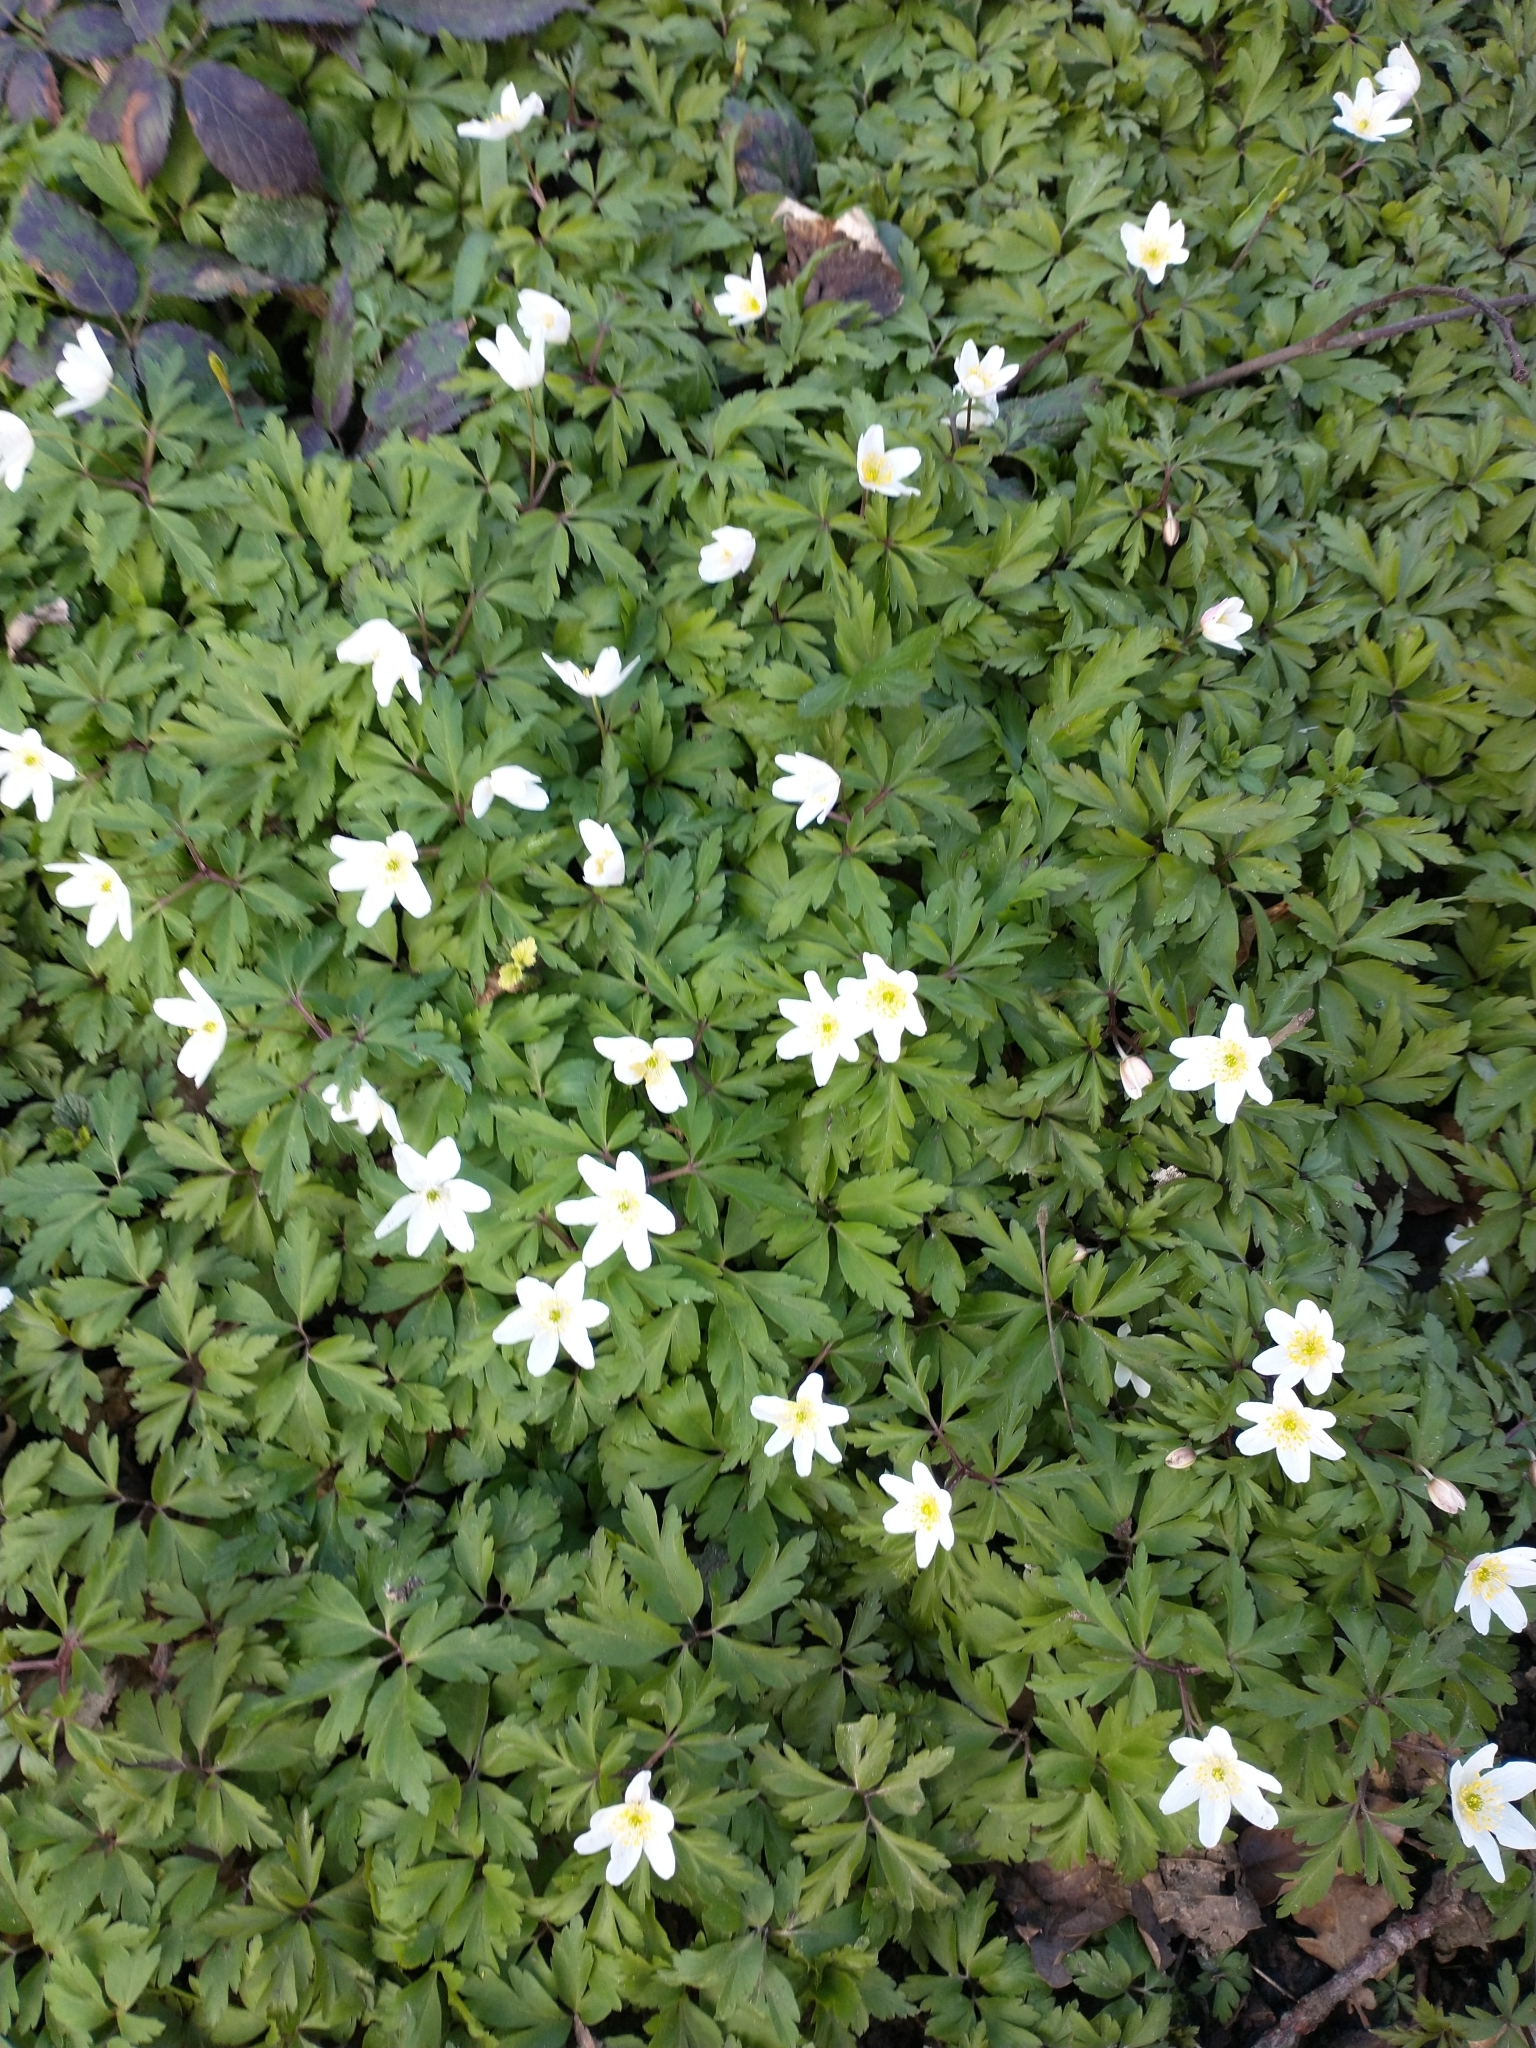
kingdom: Plantae
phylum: Tracheophyta
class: Magnoliopsida
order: Ranunculales
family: Ranunculaceae
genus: Anemone
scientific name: Anemone nemorosa
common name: Wood anemone
